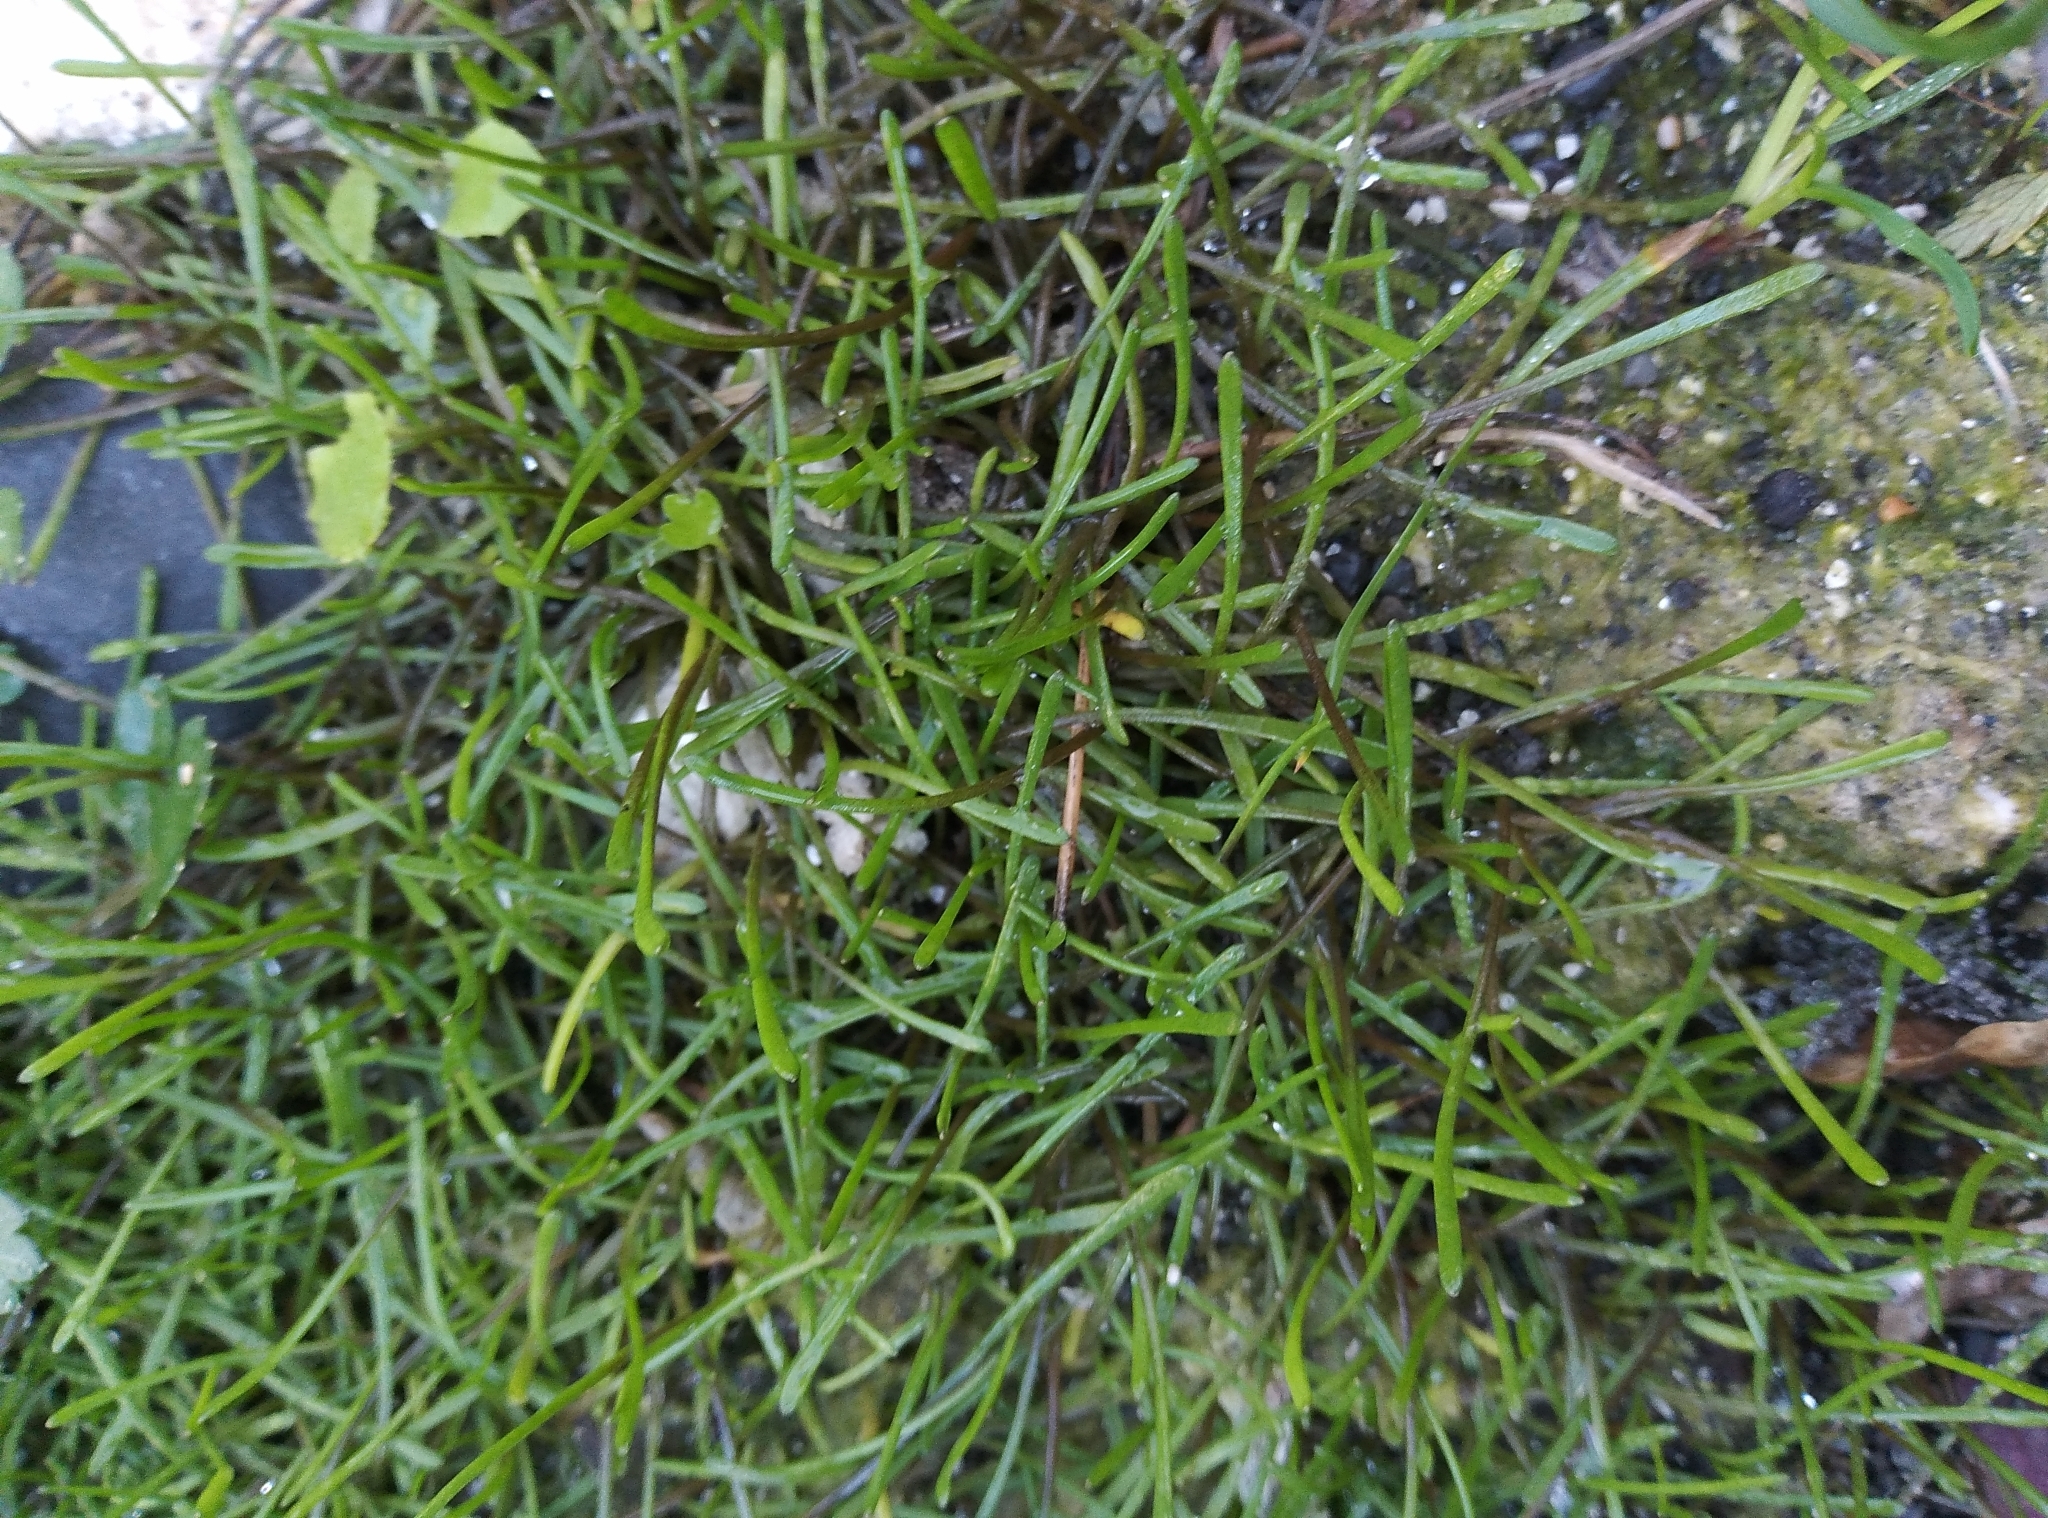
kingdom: Plantae
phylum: Tracheophyta
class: Magnoliopsida
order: Lamiales
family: Scrophulariaceae
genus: Limosella
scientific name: Limosella australis
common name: Welsh mudwort
